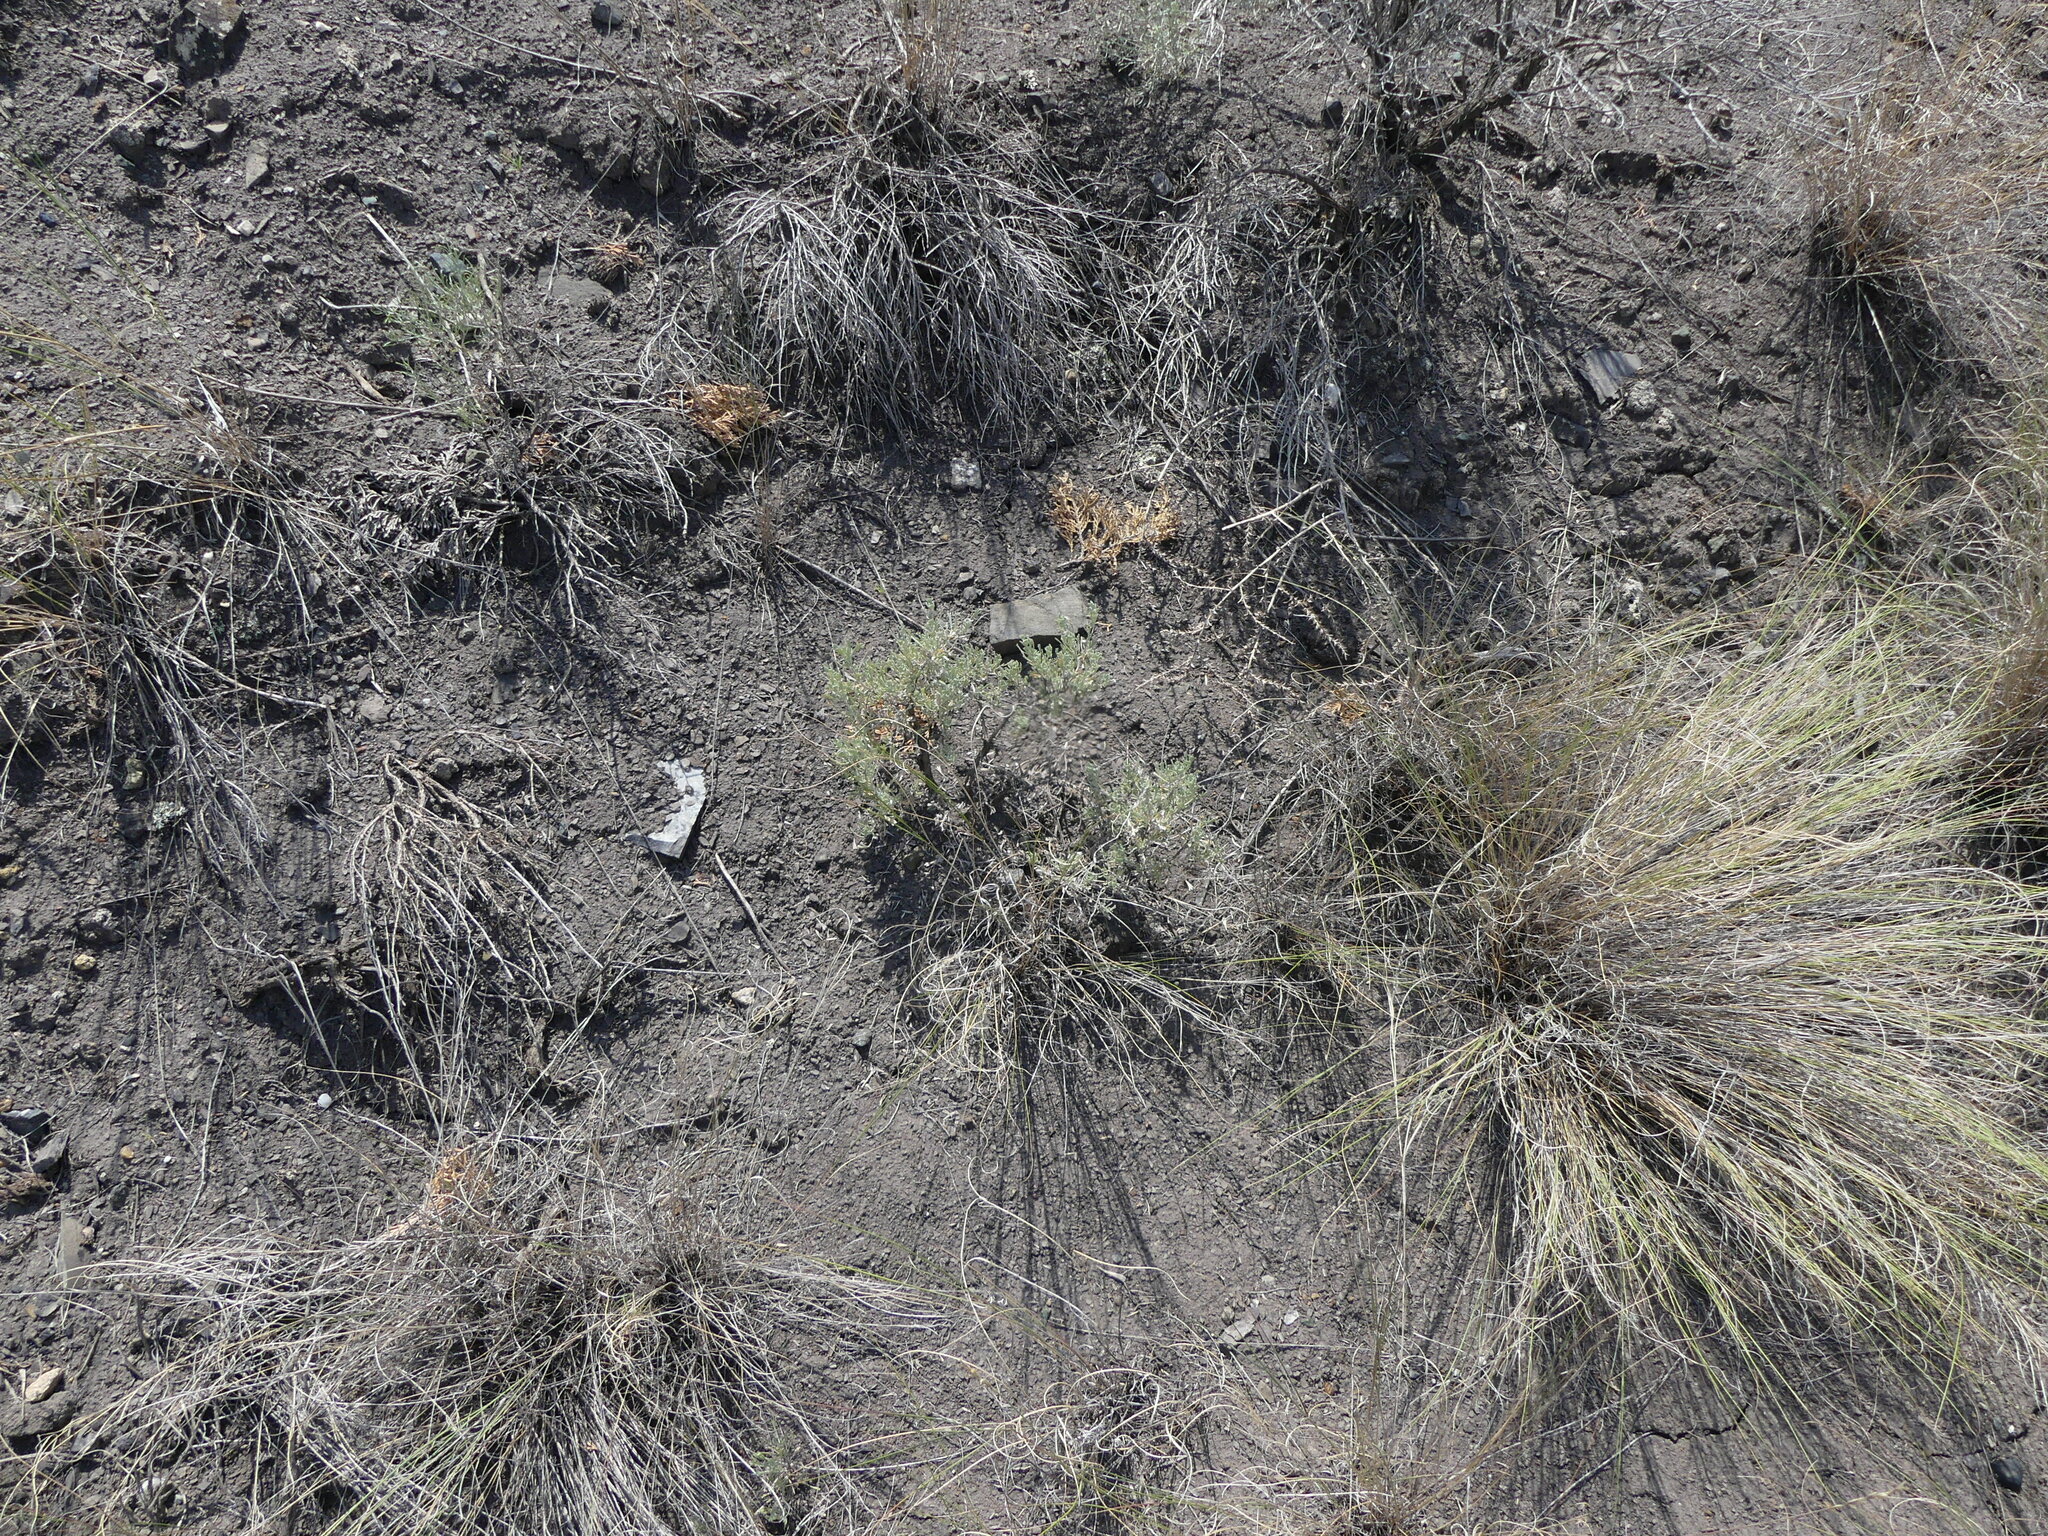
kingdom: Plantae
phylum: Tracheophyta
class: Magnoliopsida
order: Asterales
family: Asteraceae
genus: Artemisia
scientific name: Artemisia tridentata
